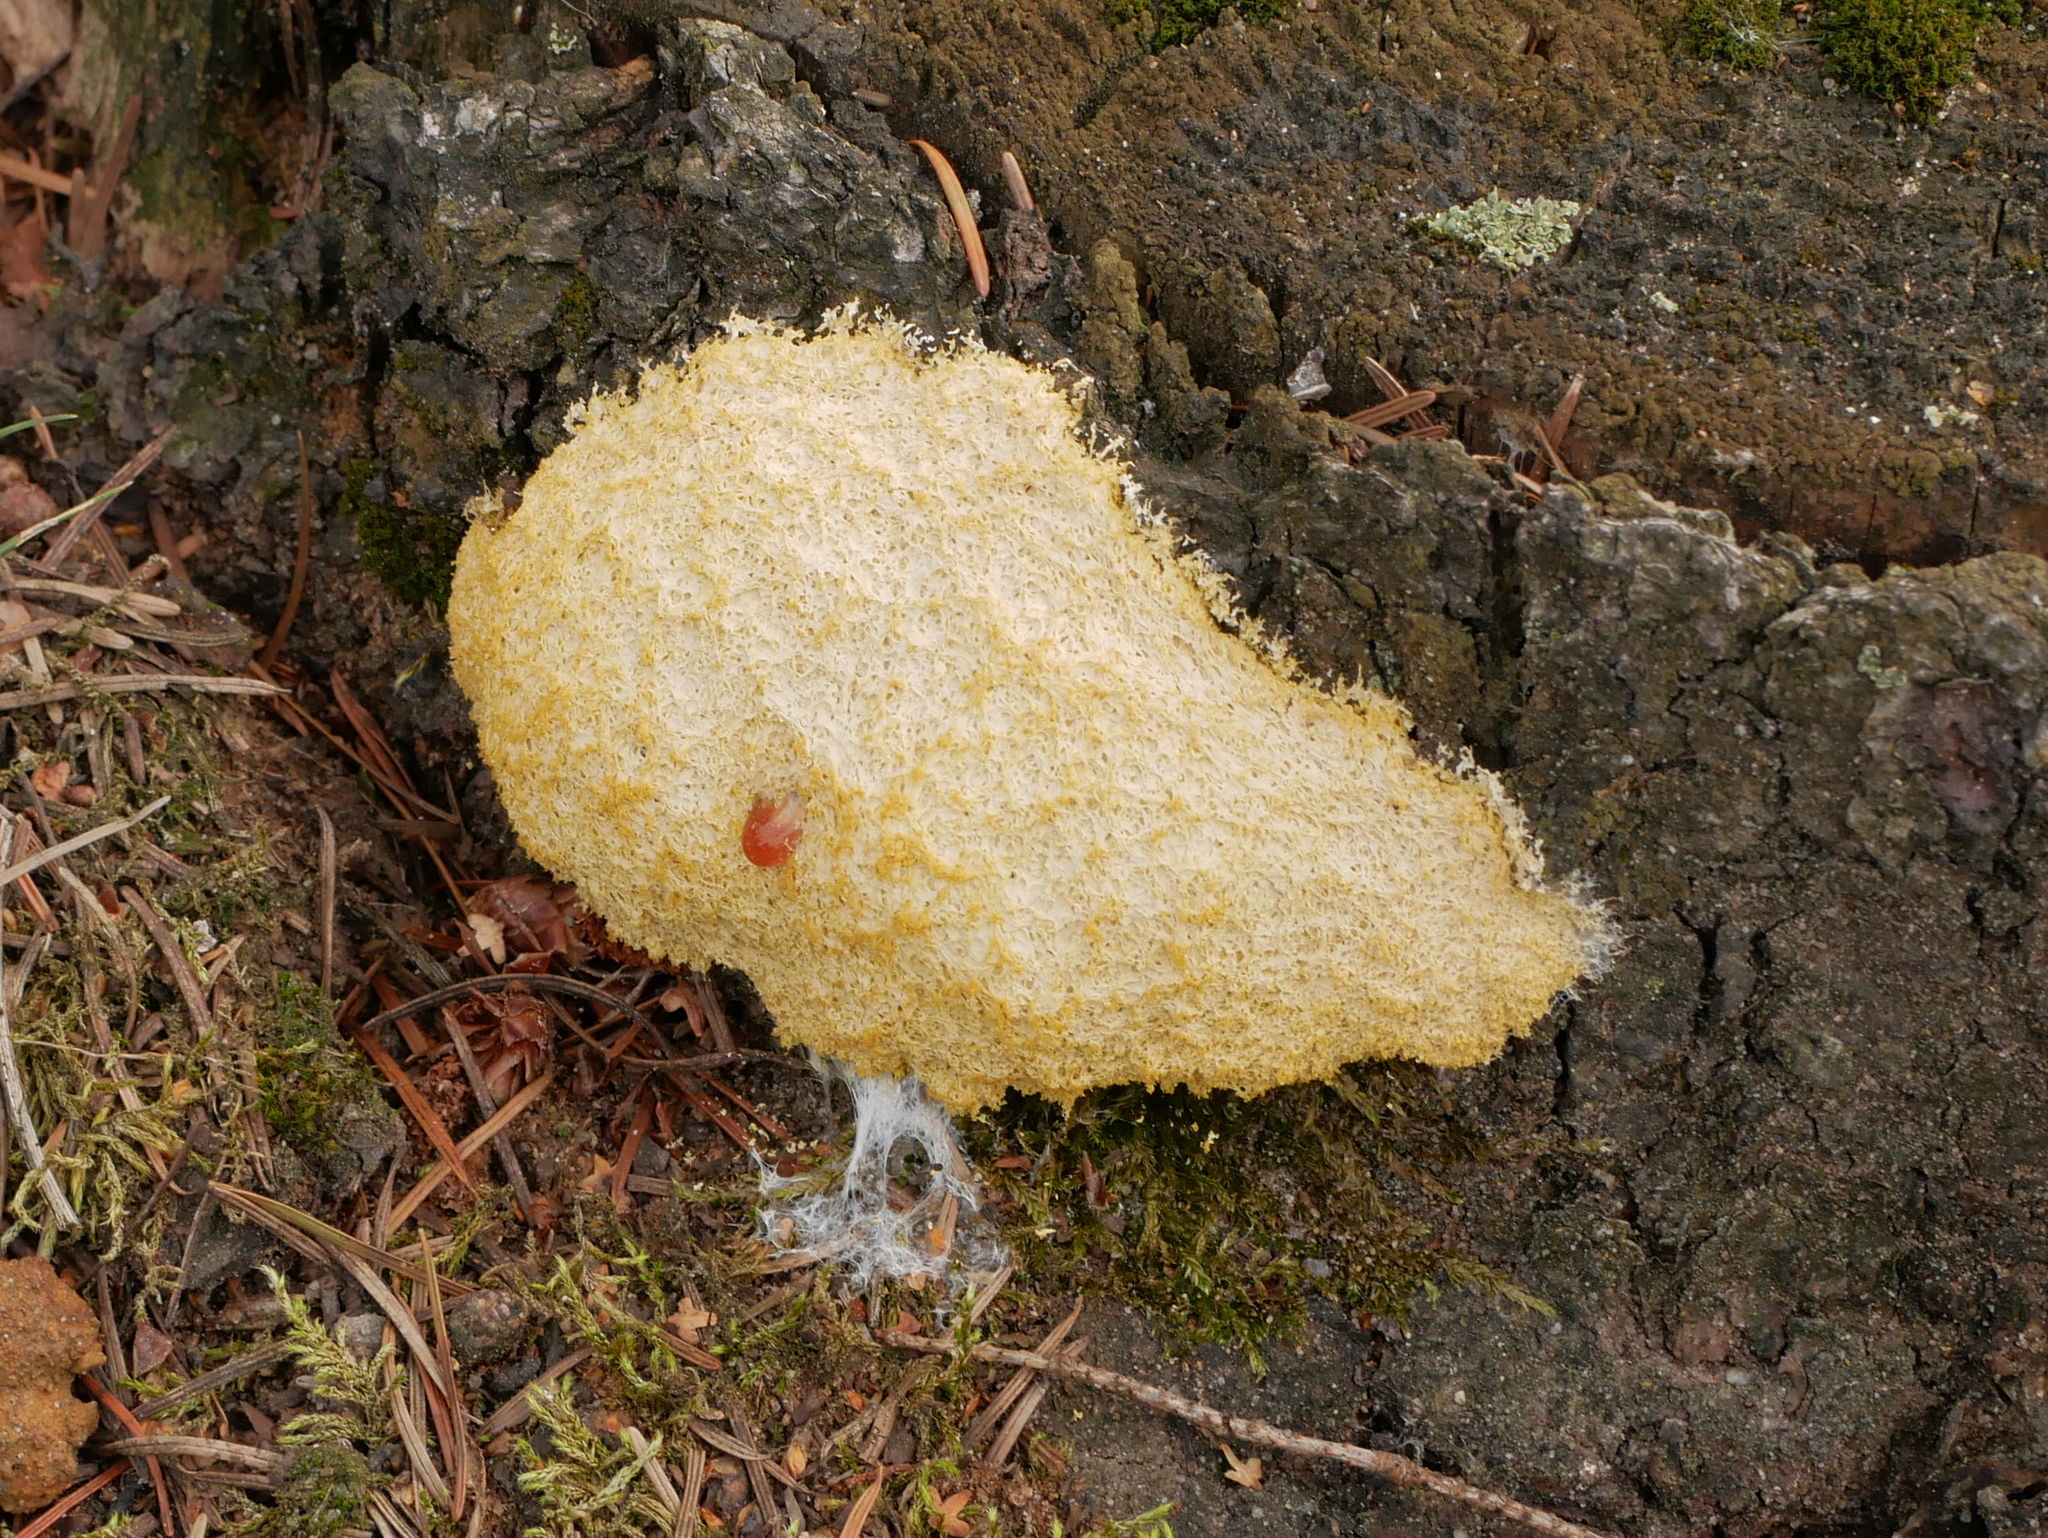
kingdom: Protozoa
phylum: Mycetozoa
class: Myxomycetes
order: Physarales
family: Physaraceae
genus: Fuligo
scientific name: Fuligo septica
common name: Dog vomit slime mold
